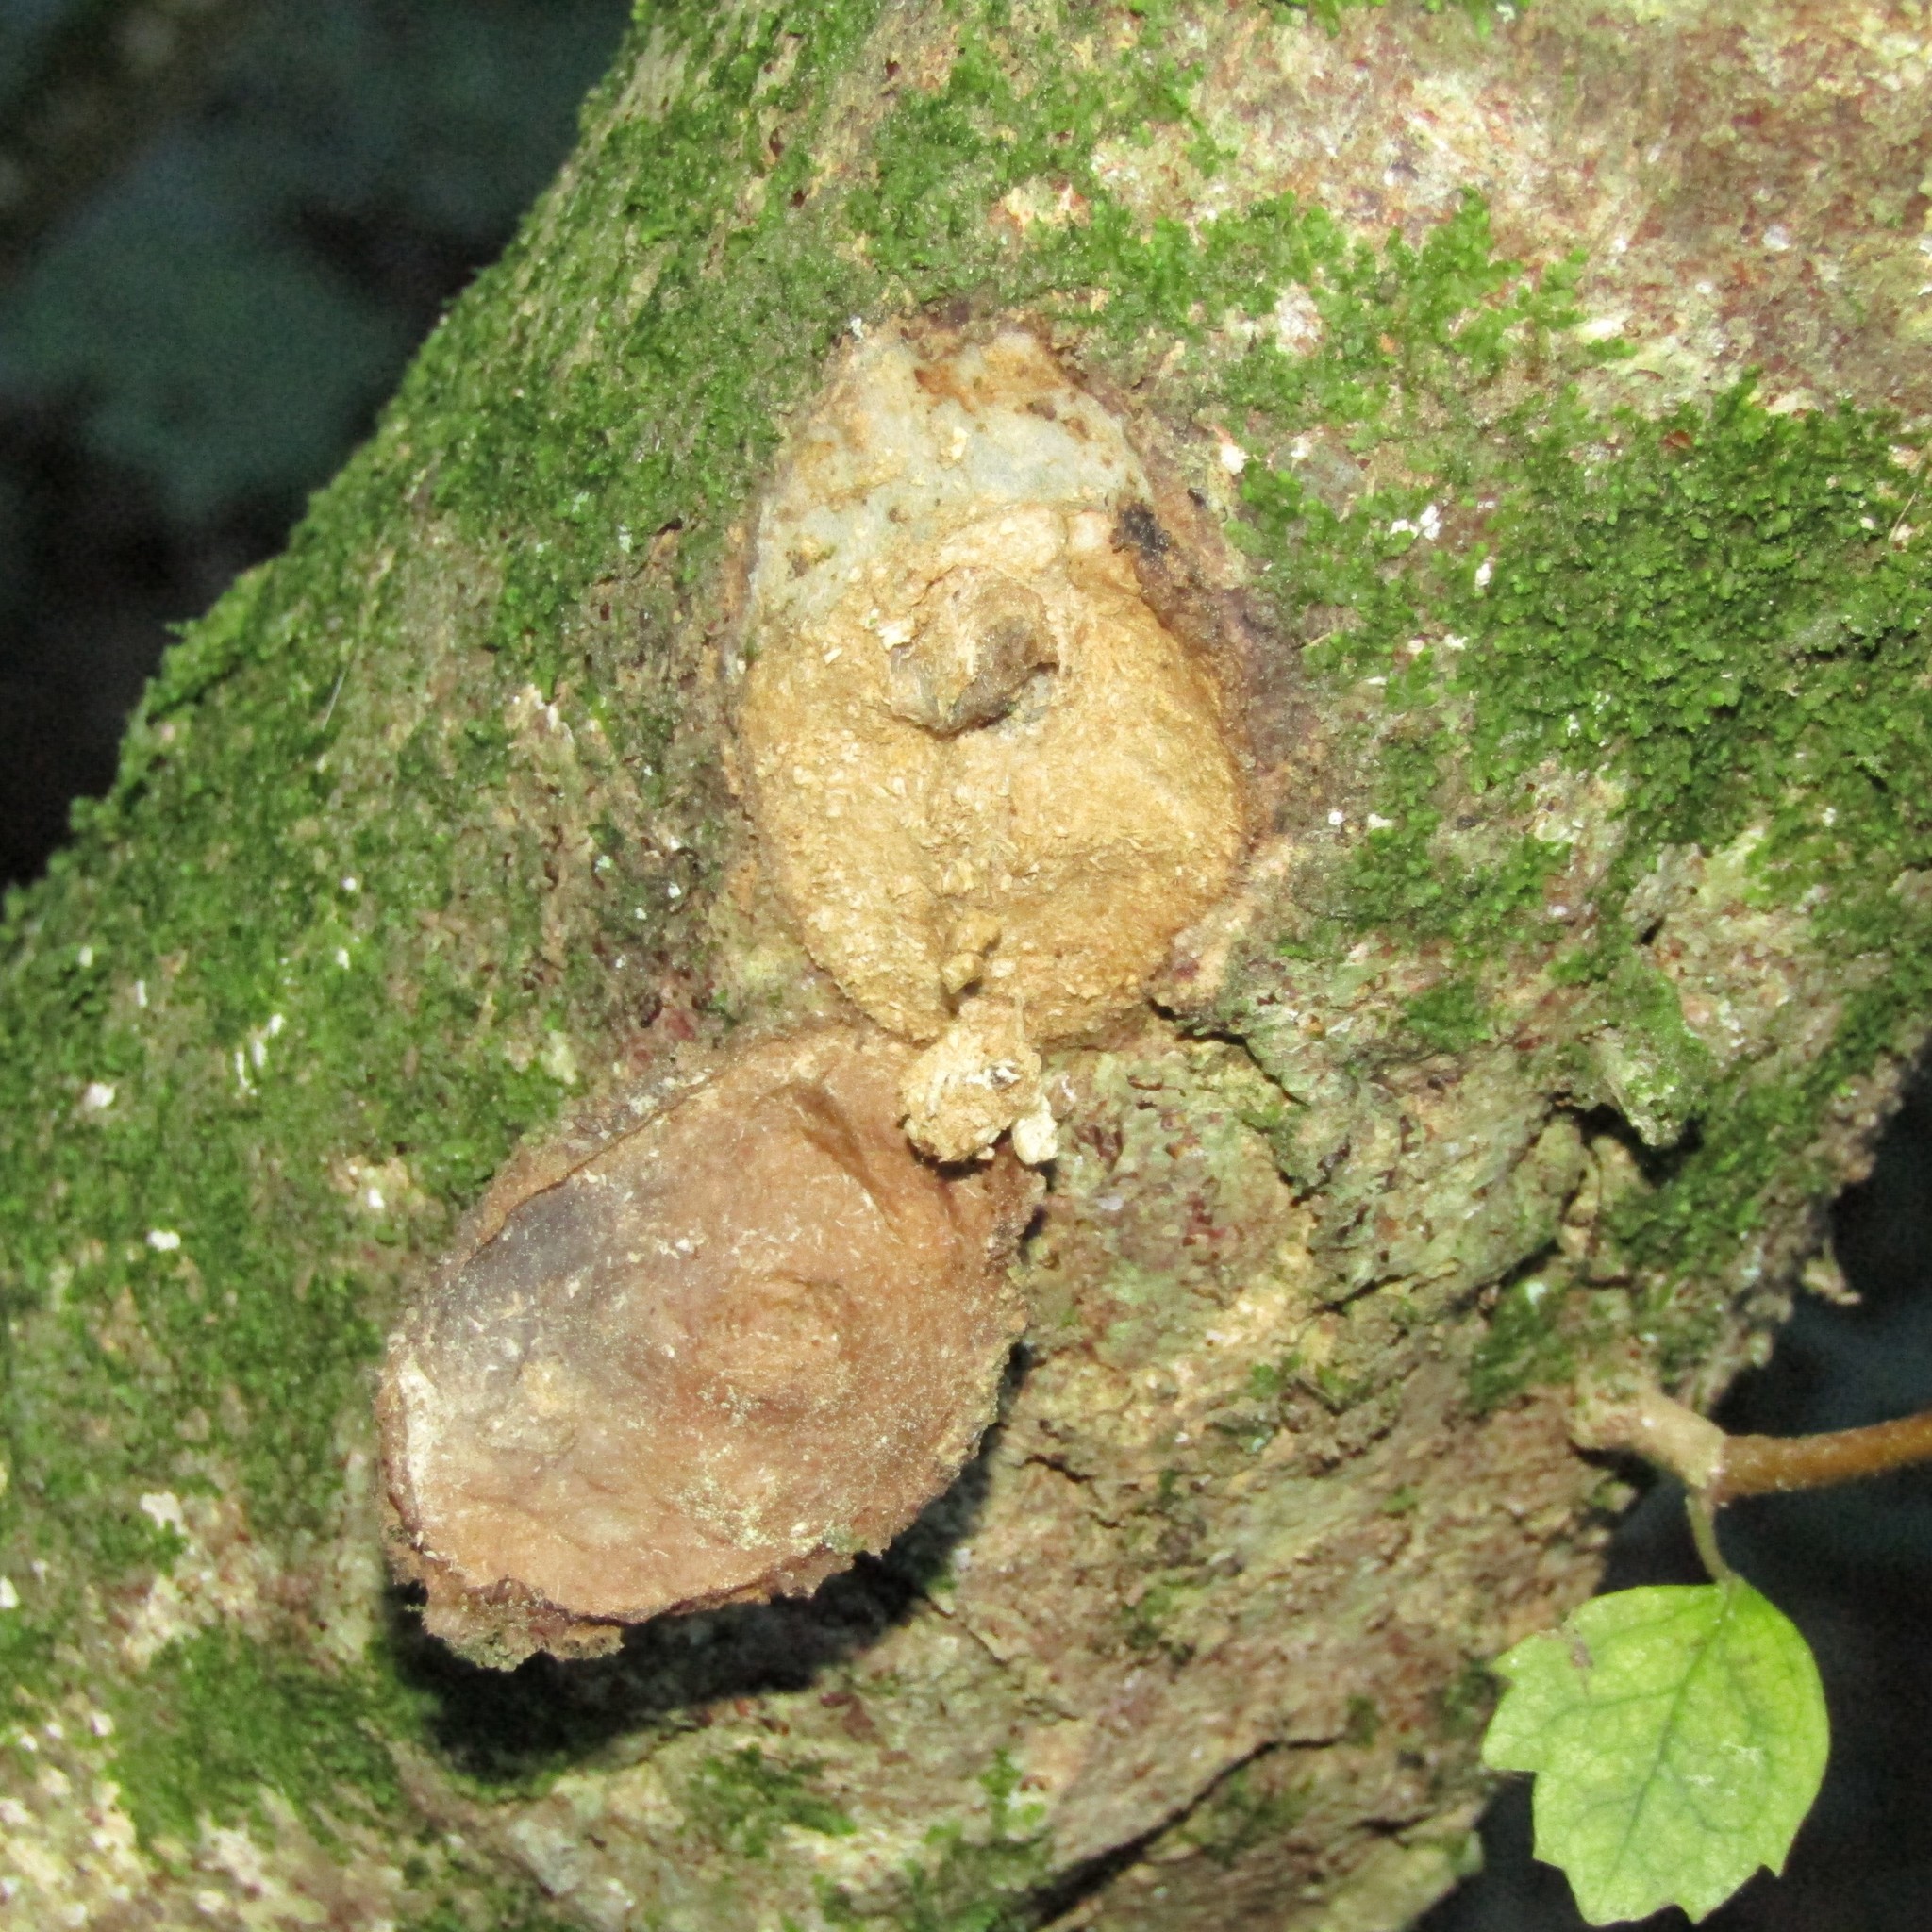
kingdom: Plantae
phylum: Tracheophyta
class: Magnoliopsida
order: Malvales
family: Malvaceae
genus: Hoheria
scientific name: Hoheria populnea
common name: Lacebark
